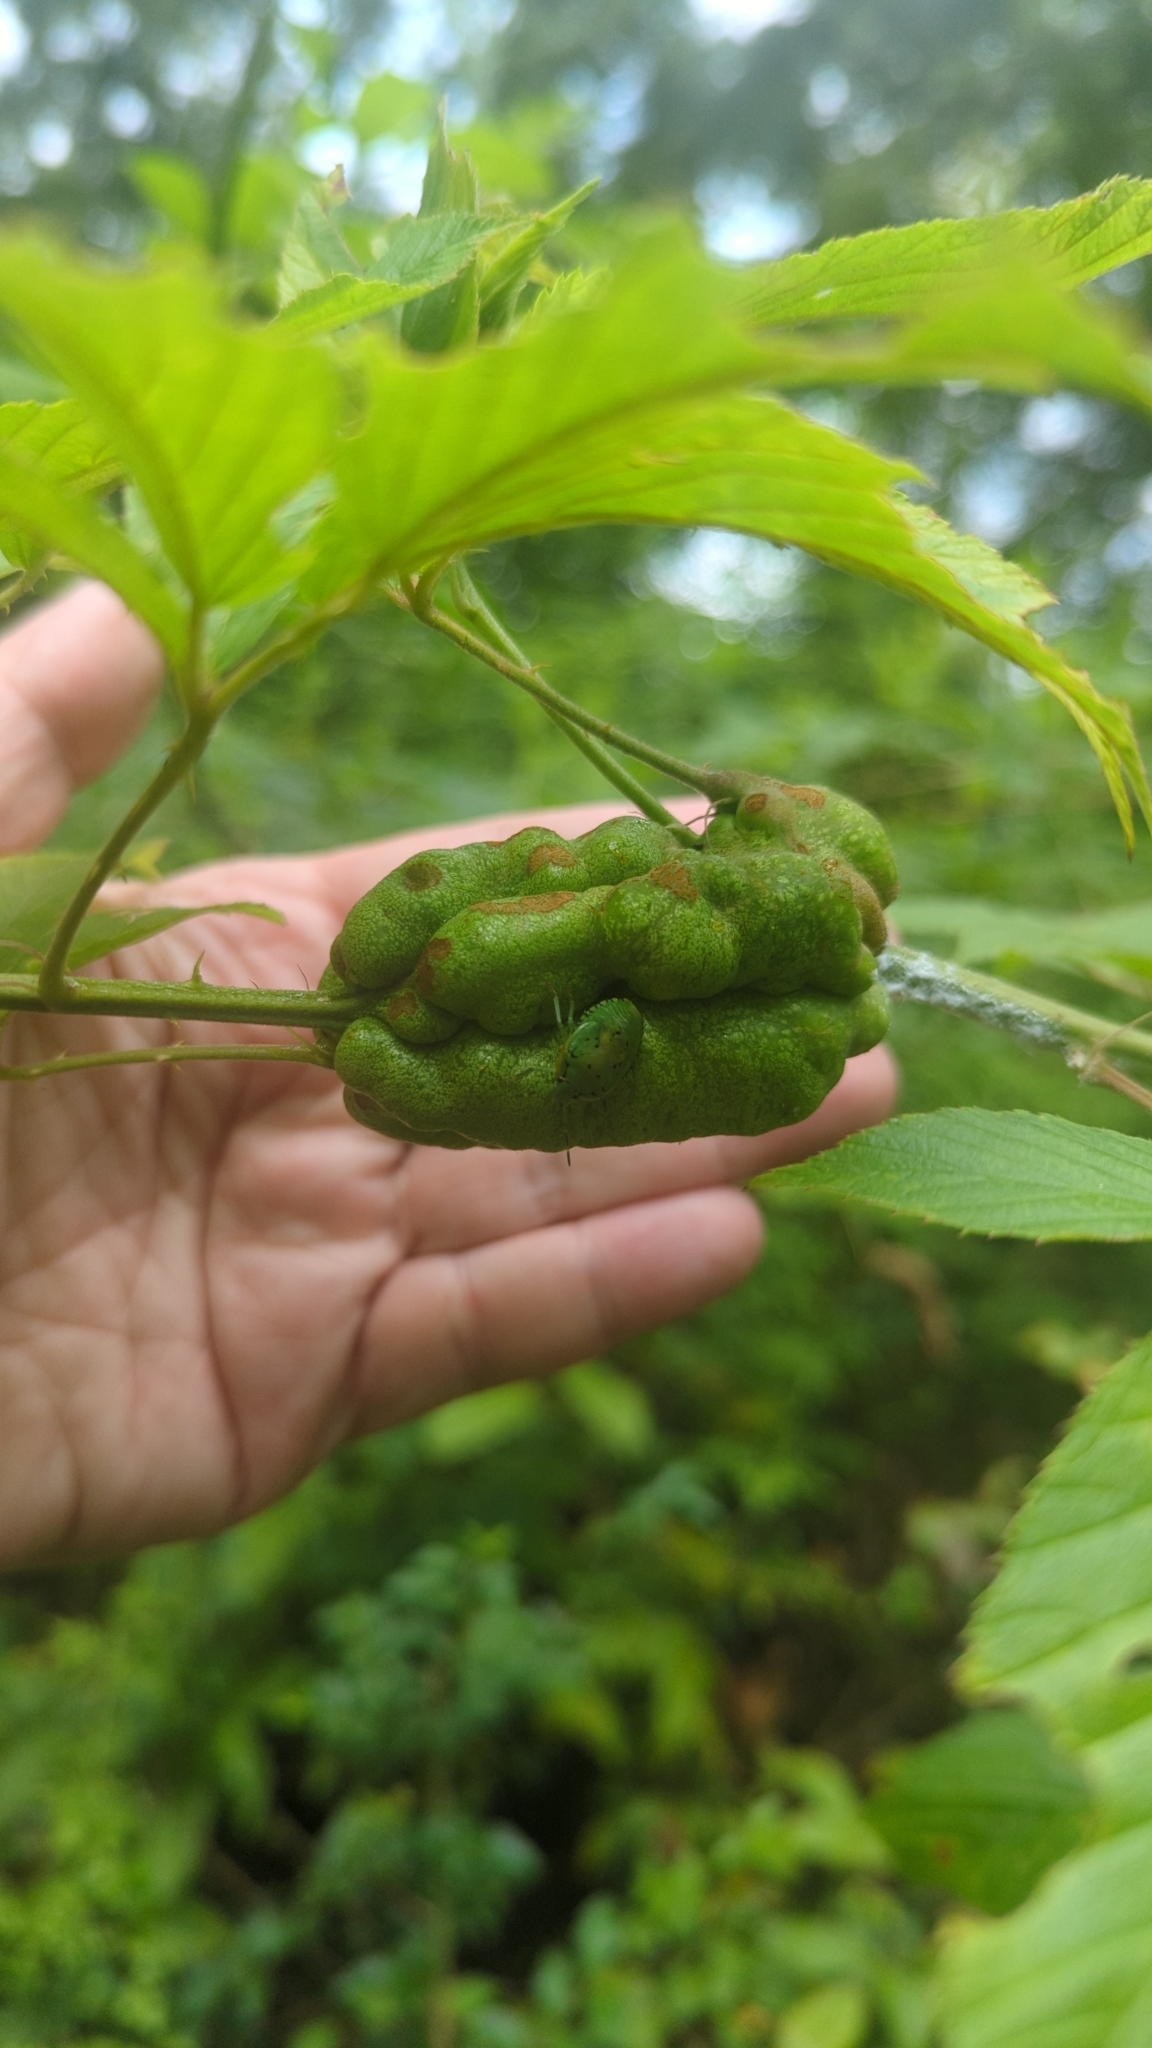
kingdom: Animalia
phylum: Arthropoda
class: Insecta
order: Hymenoptera
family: Cynipidae
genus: Diastrophus
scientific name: Diastrophus
